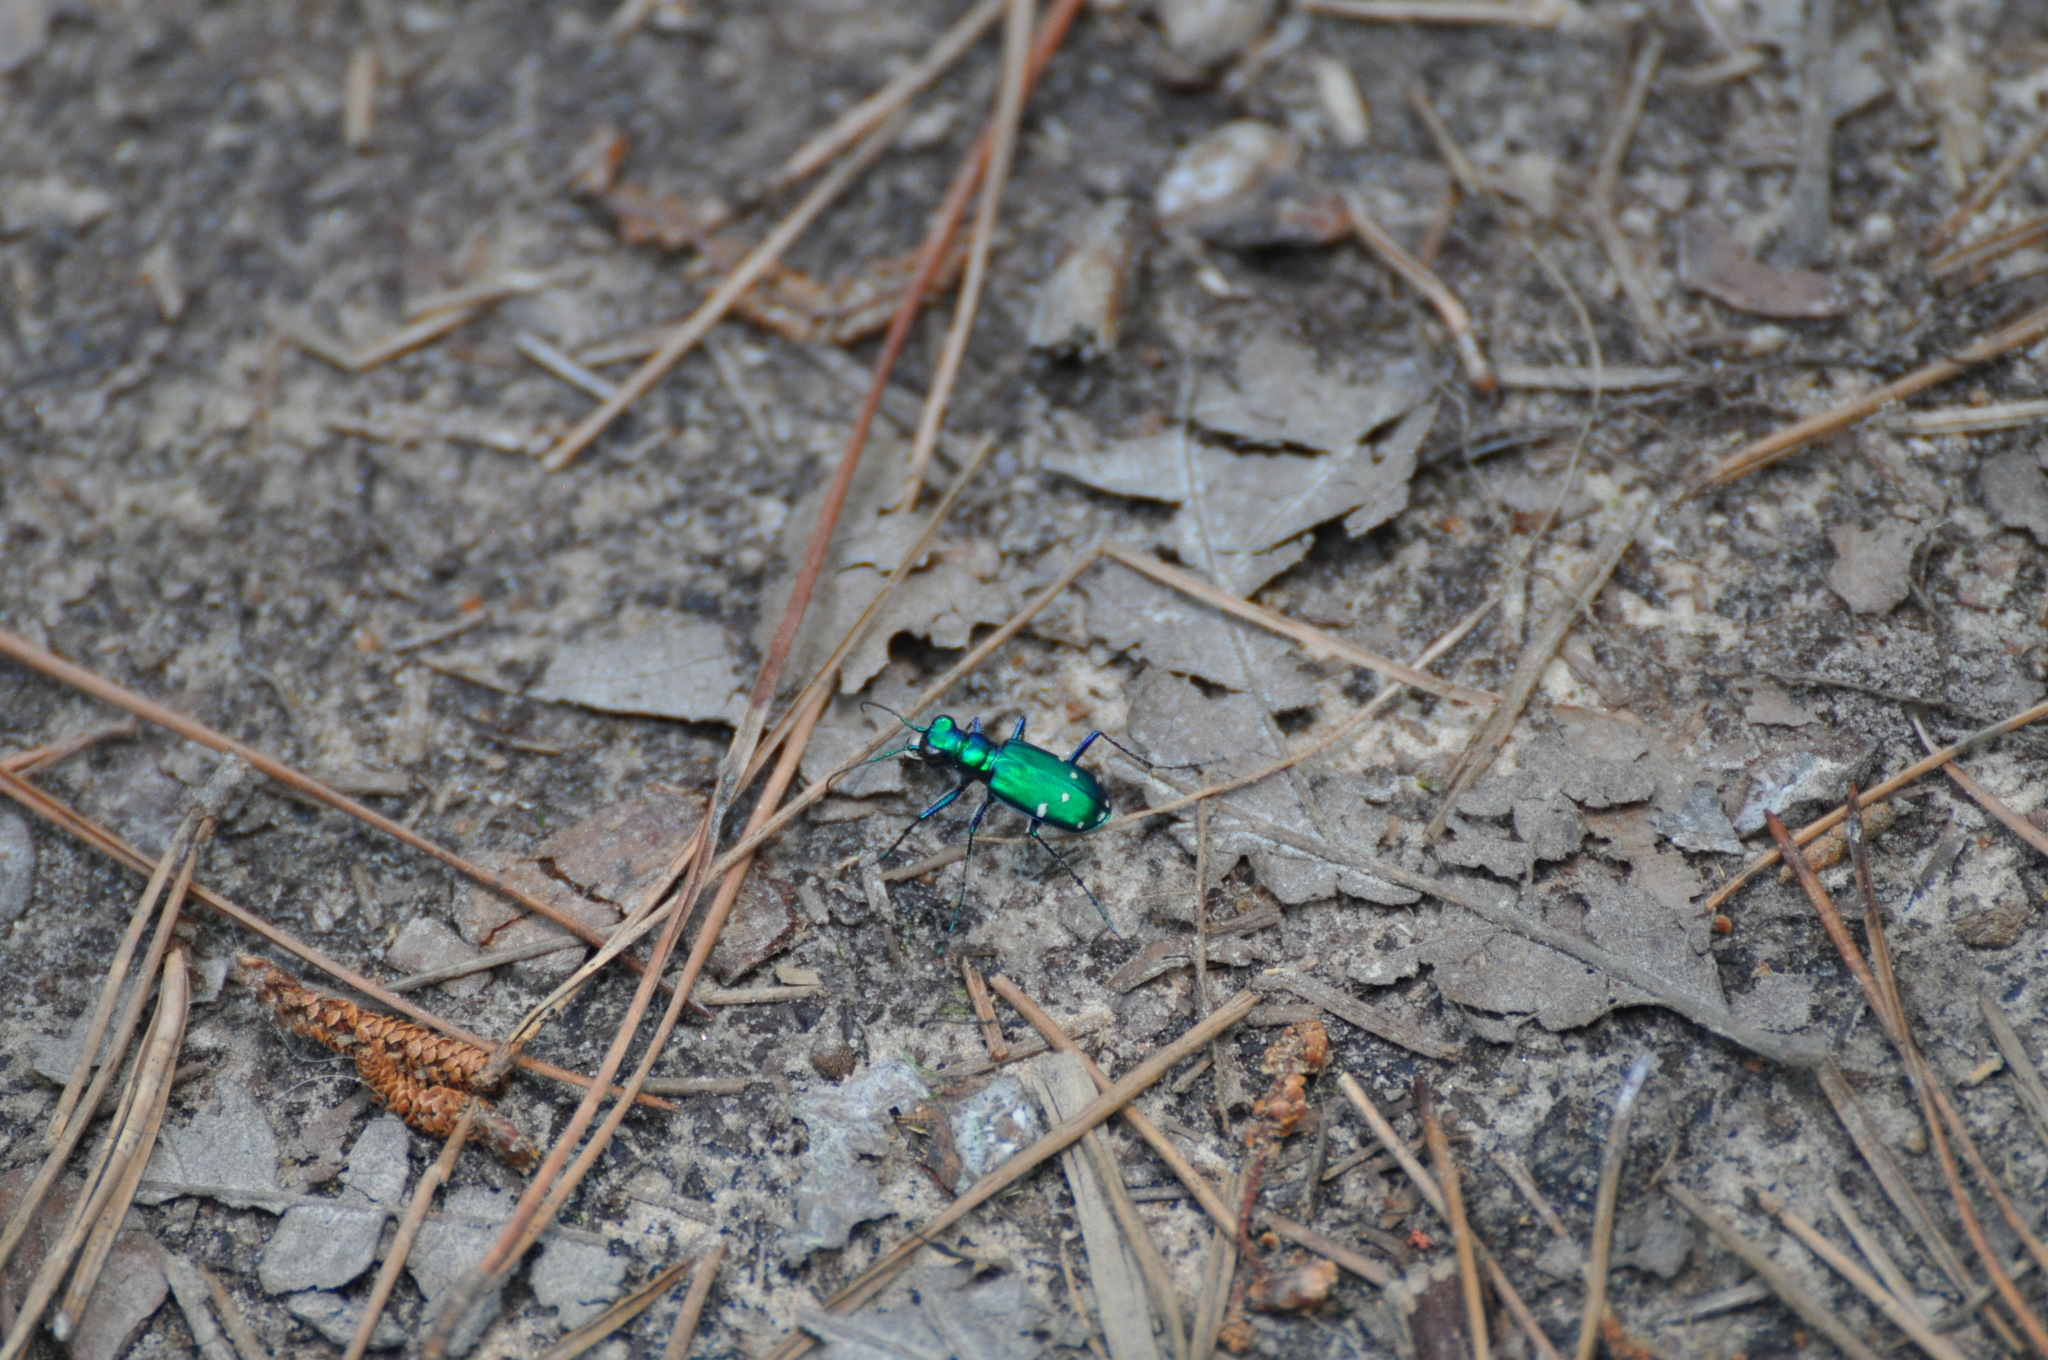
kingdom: Animalia
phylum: Arthropoda
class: Insecta
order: Coleoptera
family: Carabidae
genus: Cicindela
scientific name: Cicindela sexguttata
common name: Six-spotted tiger beetle
